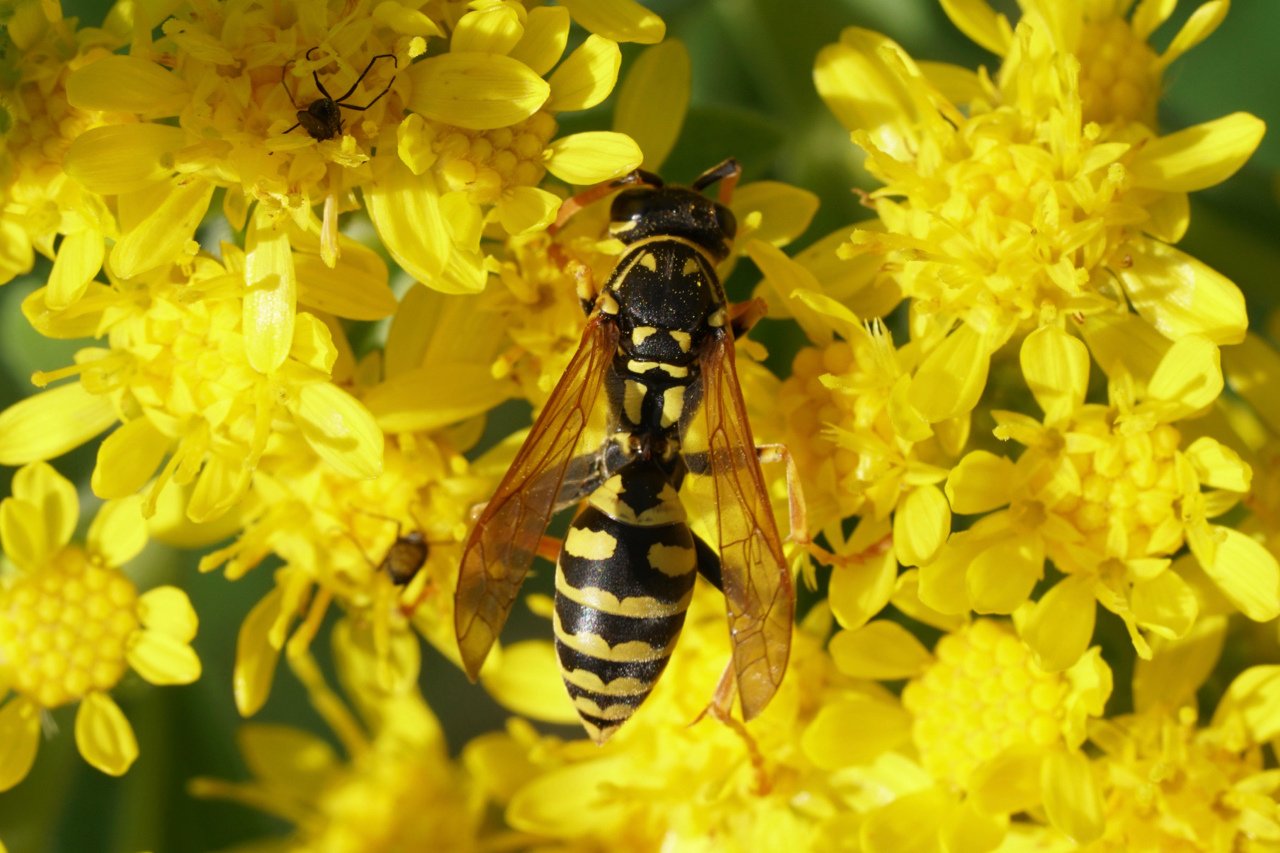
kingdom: Animalia
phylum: Arthropoda
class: Insecta
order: Hymenoptera
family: Eumenidae
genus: Polistes
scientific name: Polistes dominula
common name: Paper wasp
